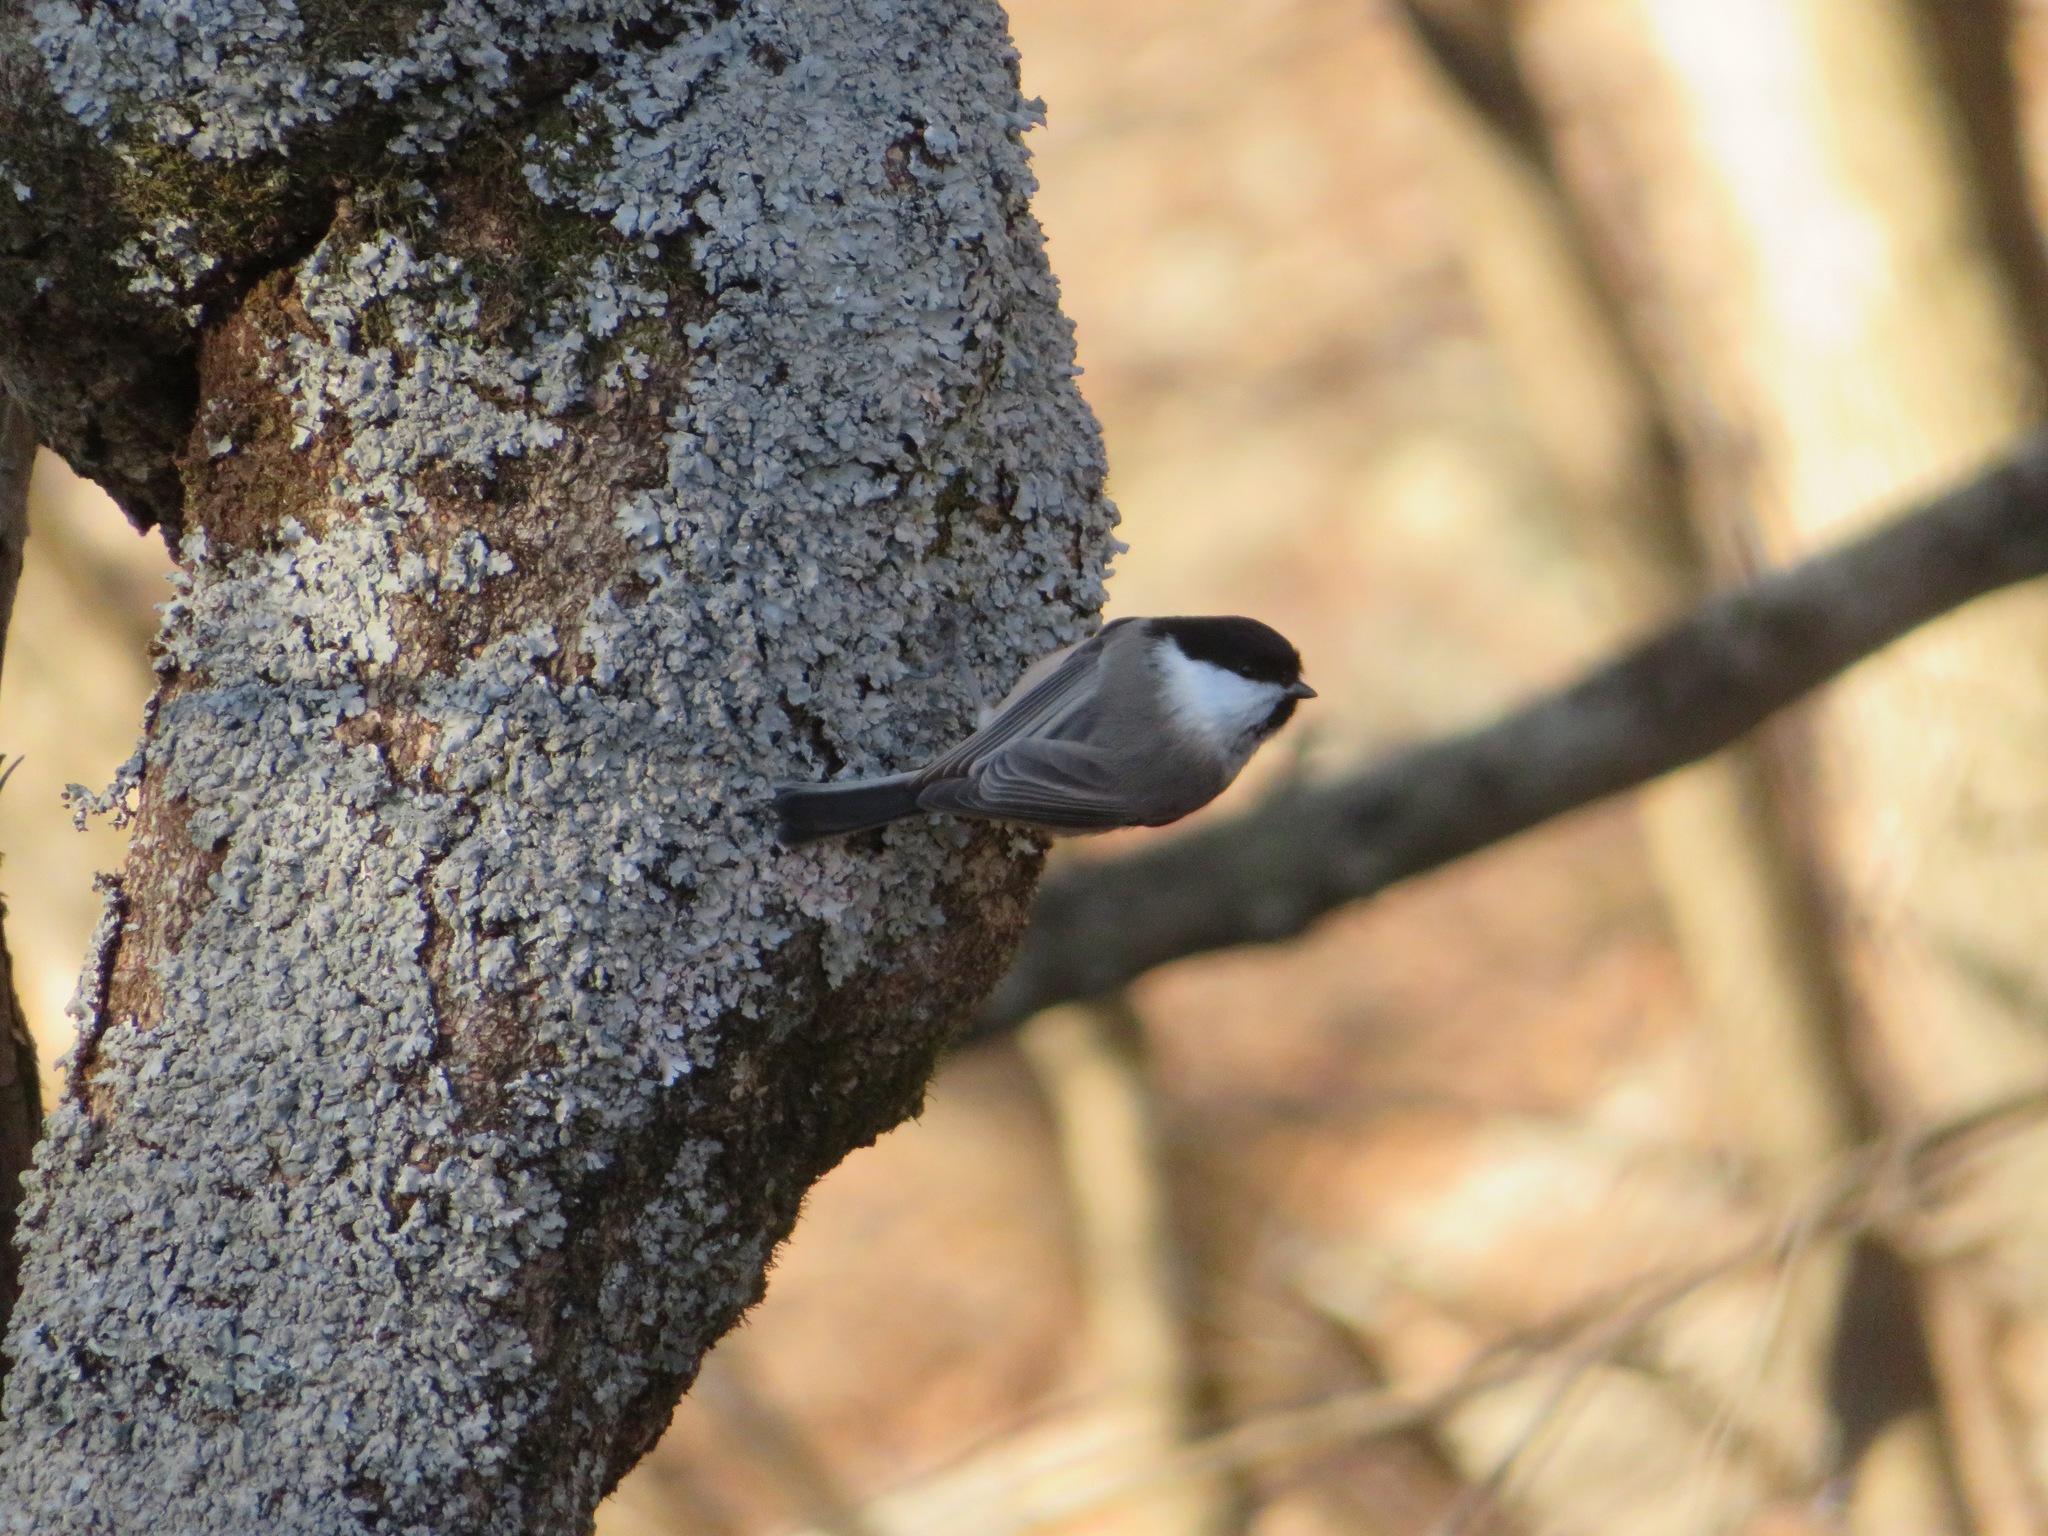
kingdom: Animalia
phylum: Chordata
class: Aves
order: Passeriformes
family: Paridae
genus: Poecile
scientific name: Poecile montanus
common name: Willow tit
